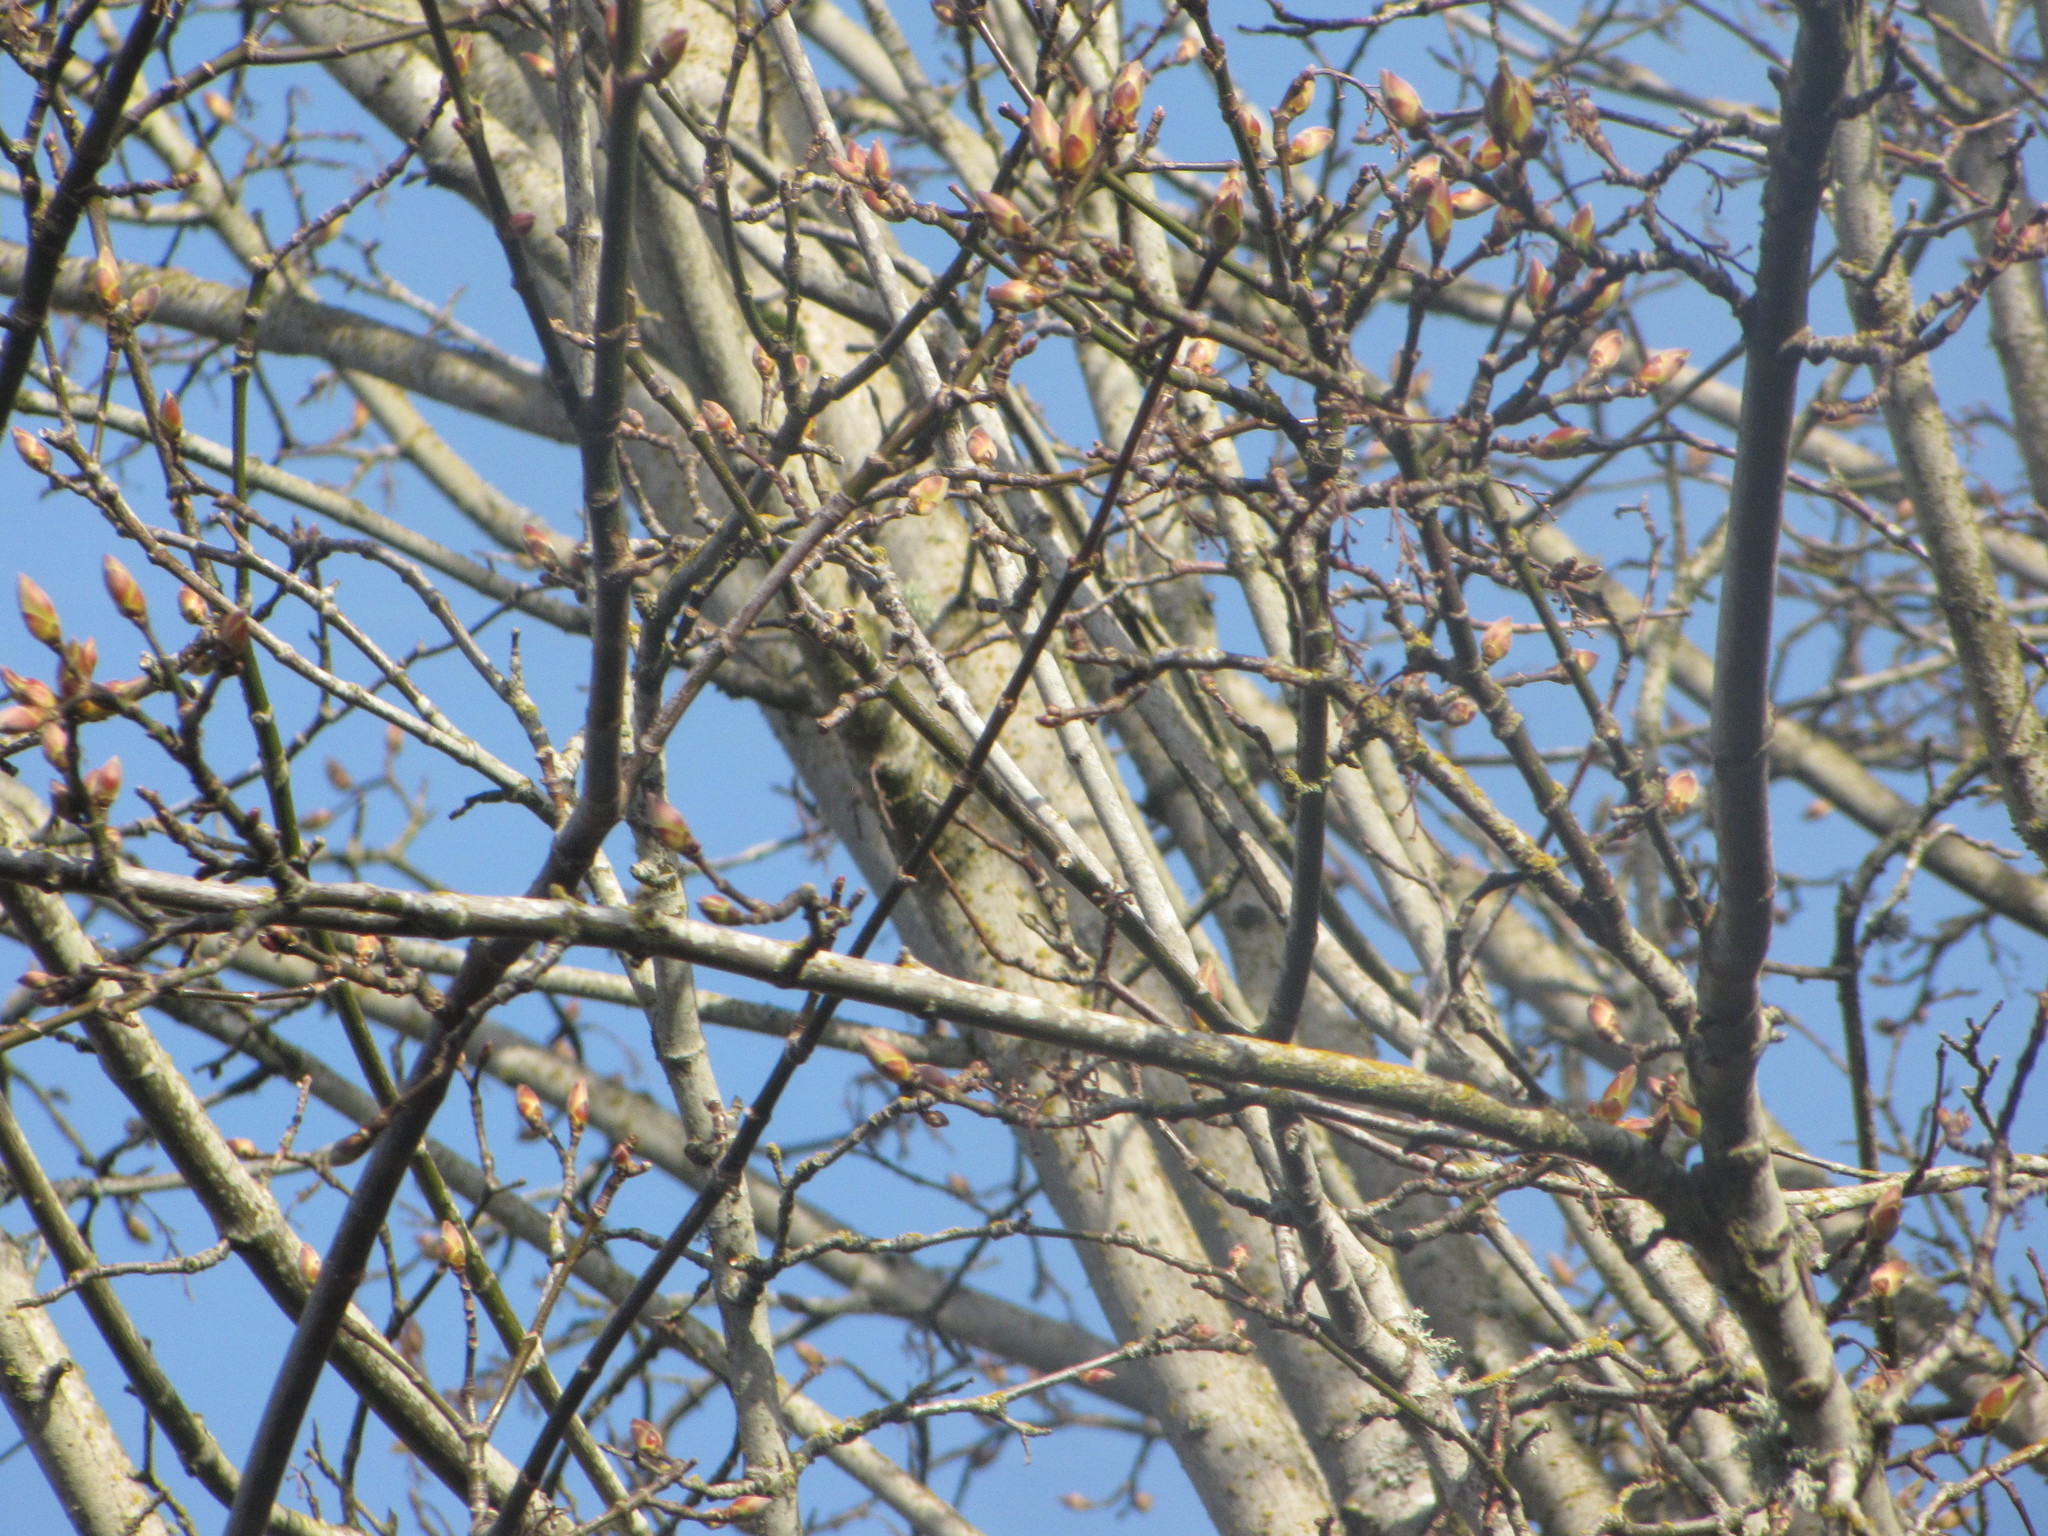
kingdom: Plantae
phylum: Tracheophyta
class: Magnoliopsida
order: Sapindales
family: Sapindaceae
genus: Acer
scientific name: Acer macrophyllum
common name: Oregon maple
